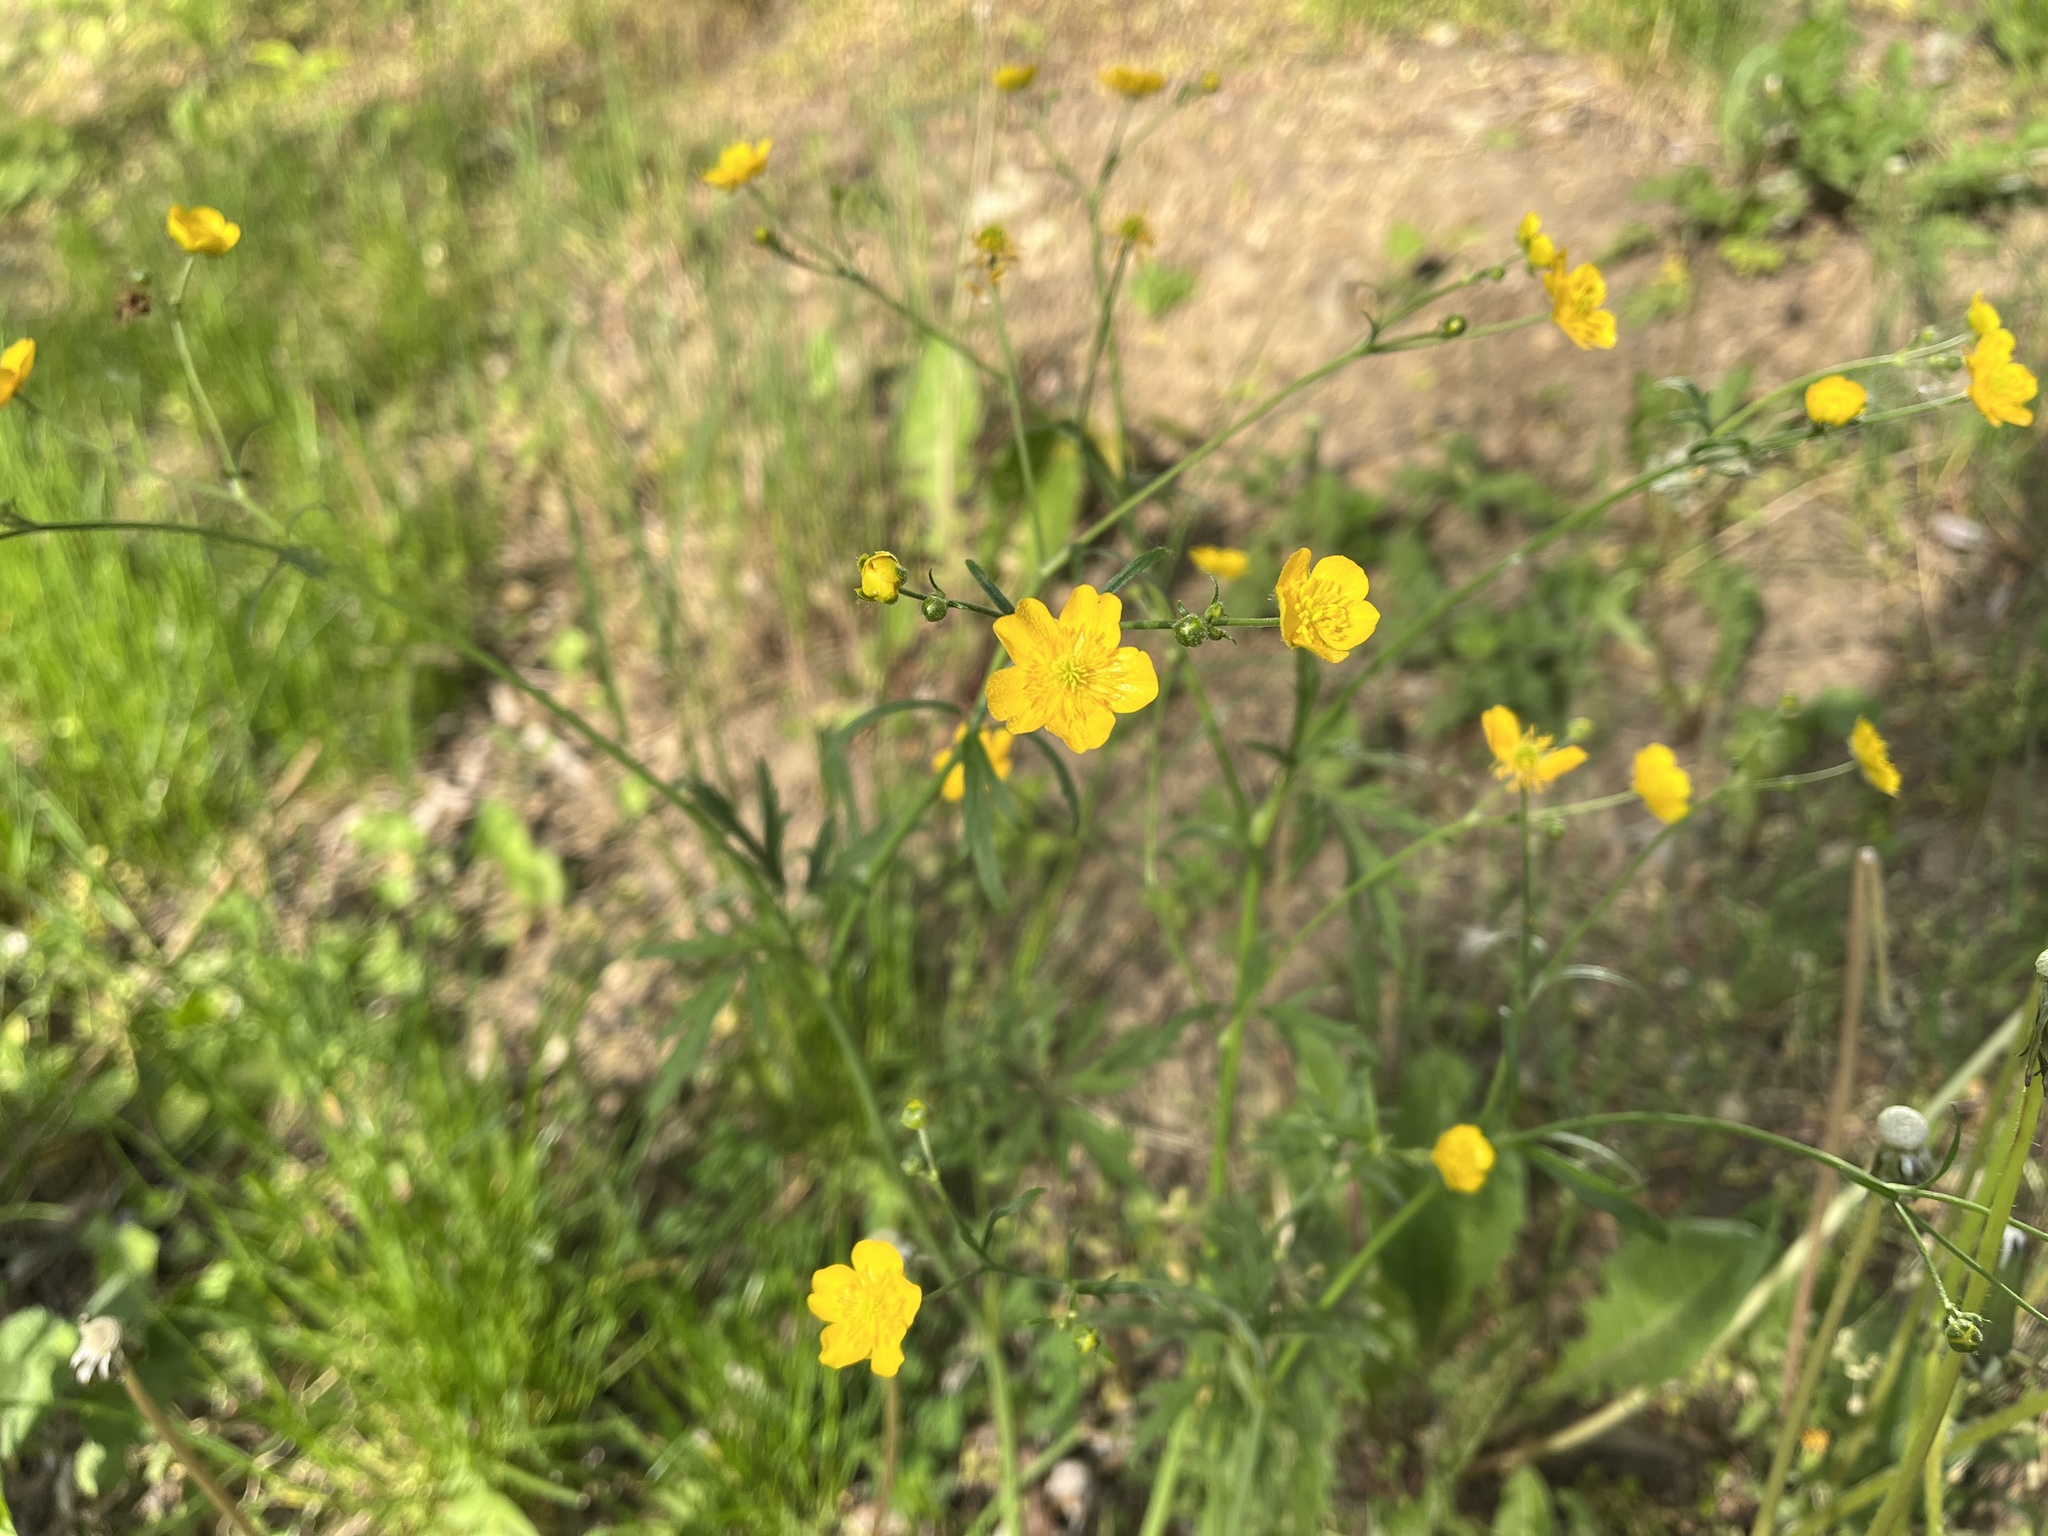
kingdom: Plantae
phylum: Tracheophyta
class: Magnoliopsida
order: Ranunculales
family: Ranunculaceae
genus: Ranunculus
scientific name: Ranunculus acris
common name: Meadow buttercup
